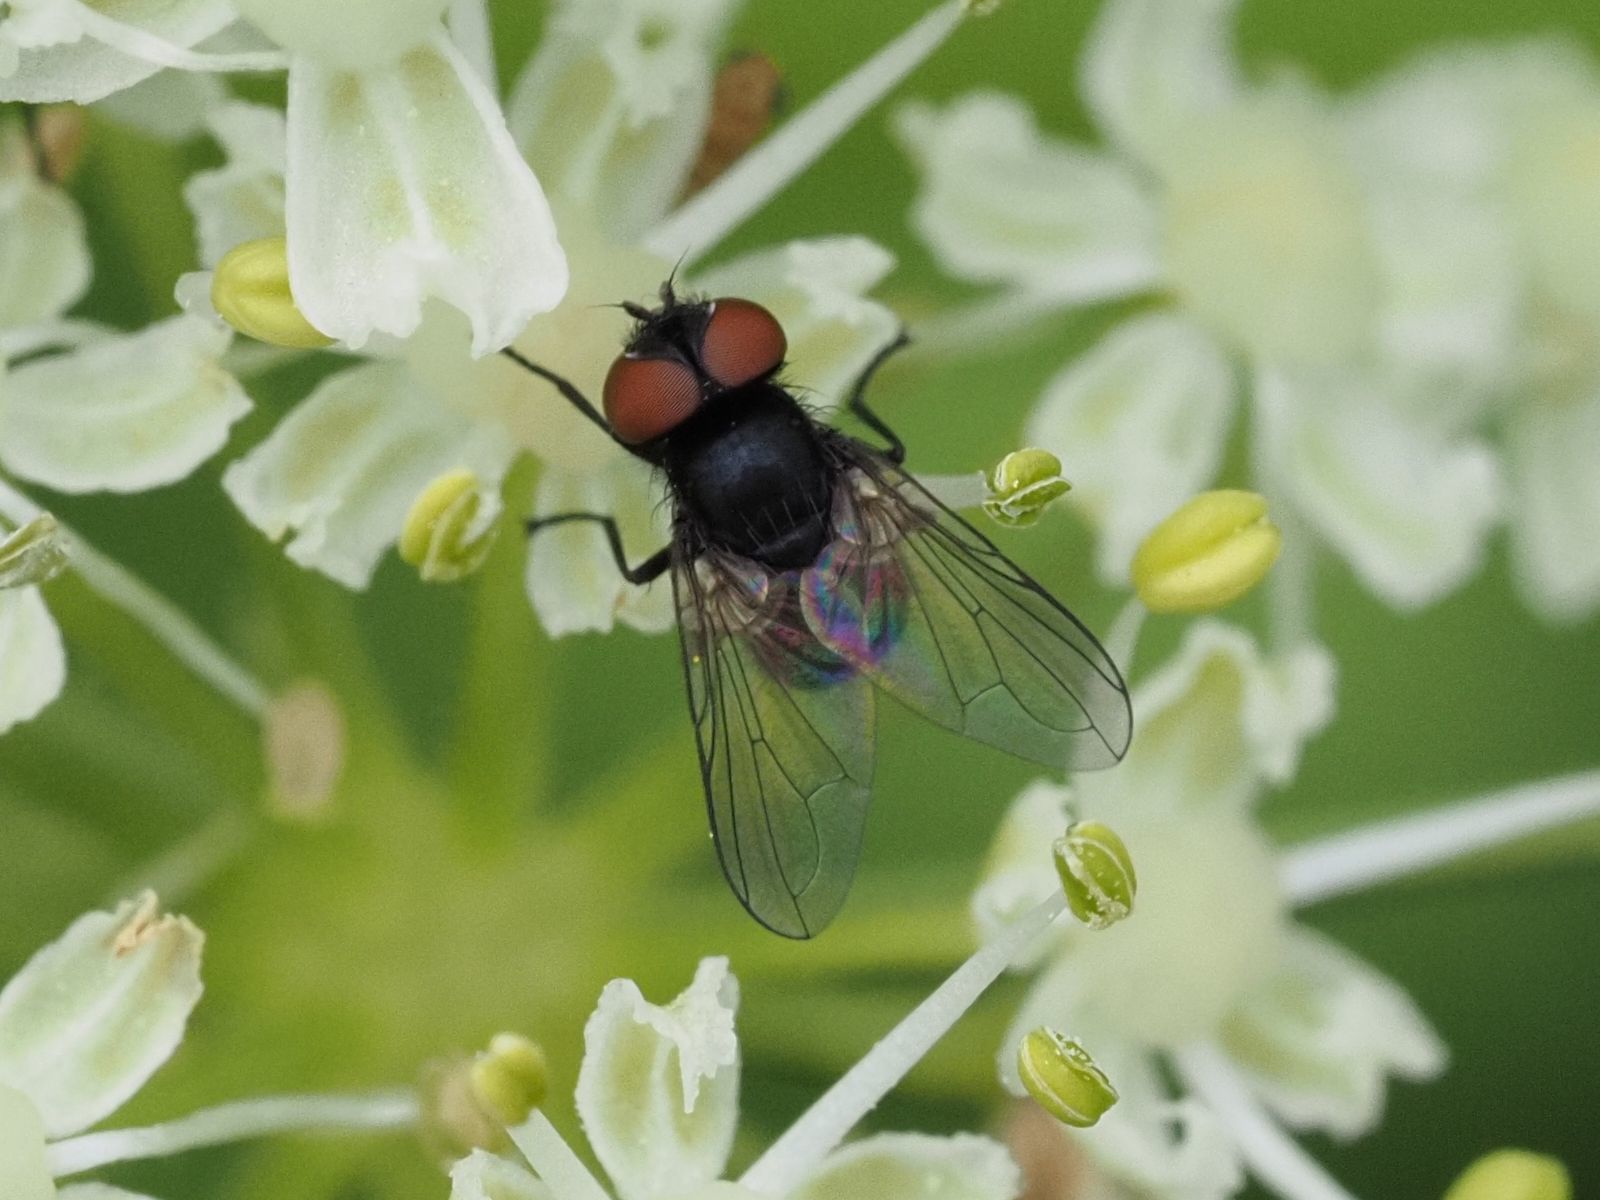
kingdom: Animalia
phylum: Arthropoda
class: Insecta
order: Diptera
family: Tachinidae
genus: Phasia
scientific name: Phasia barbifrons
